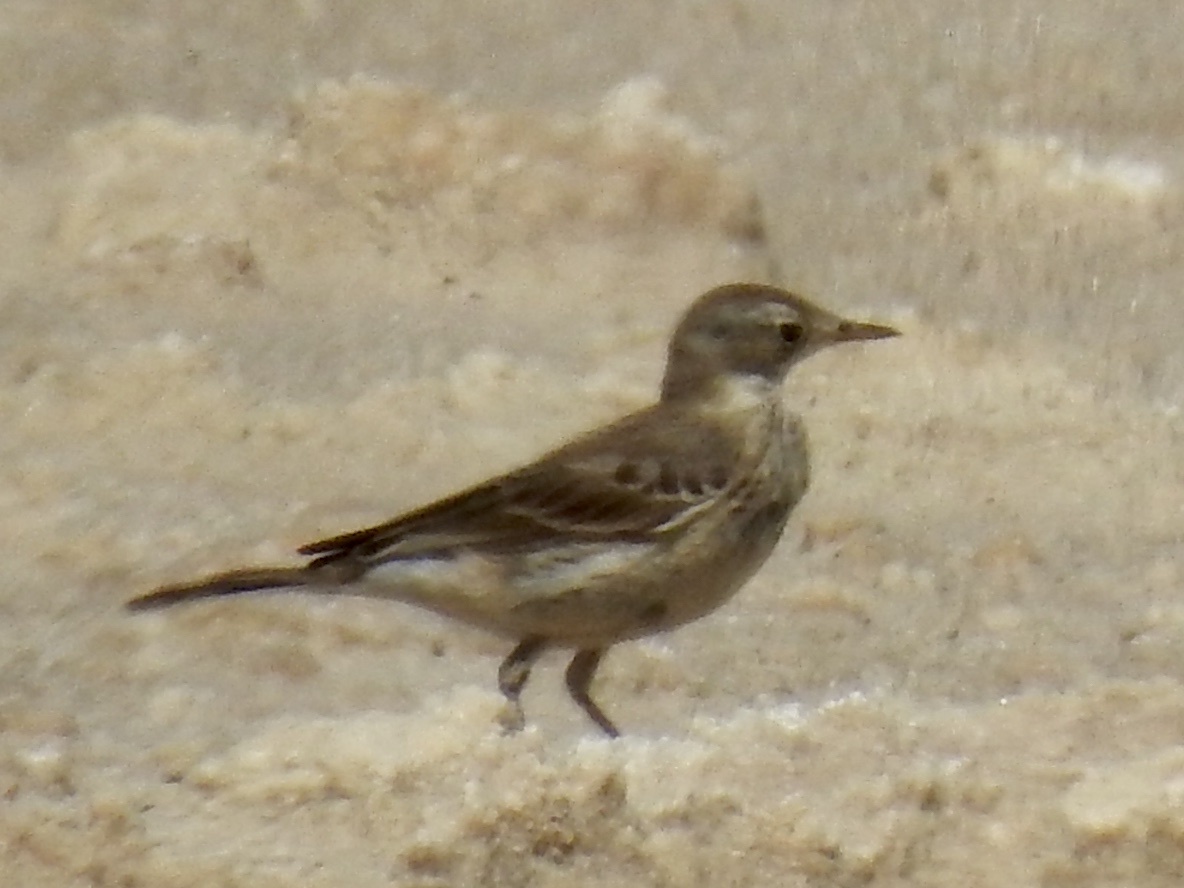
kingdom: Animalia
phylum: Chordata
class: Aves
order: Passeriformes
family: Motacillidae
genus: Anthus
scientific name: Anthus rubescens
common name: Buff-bellied pipit
